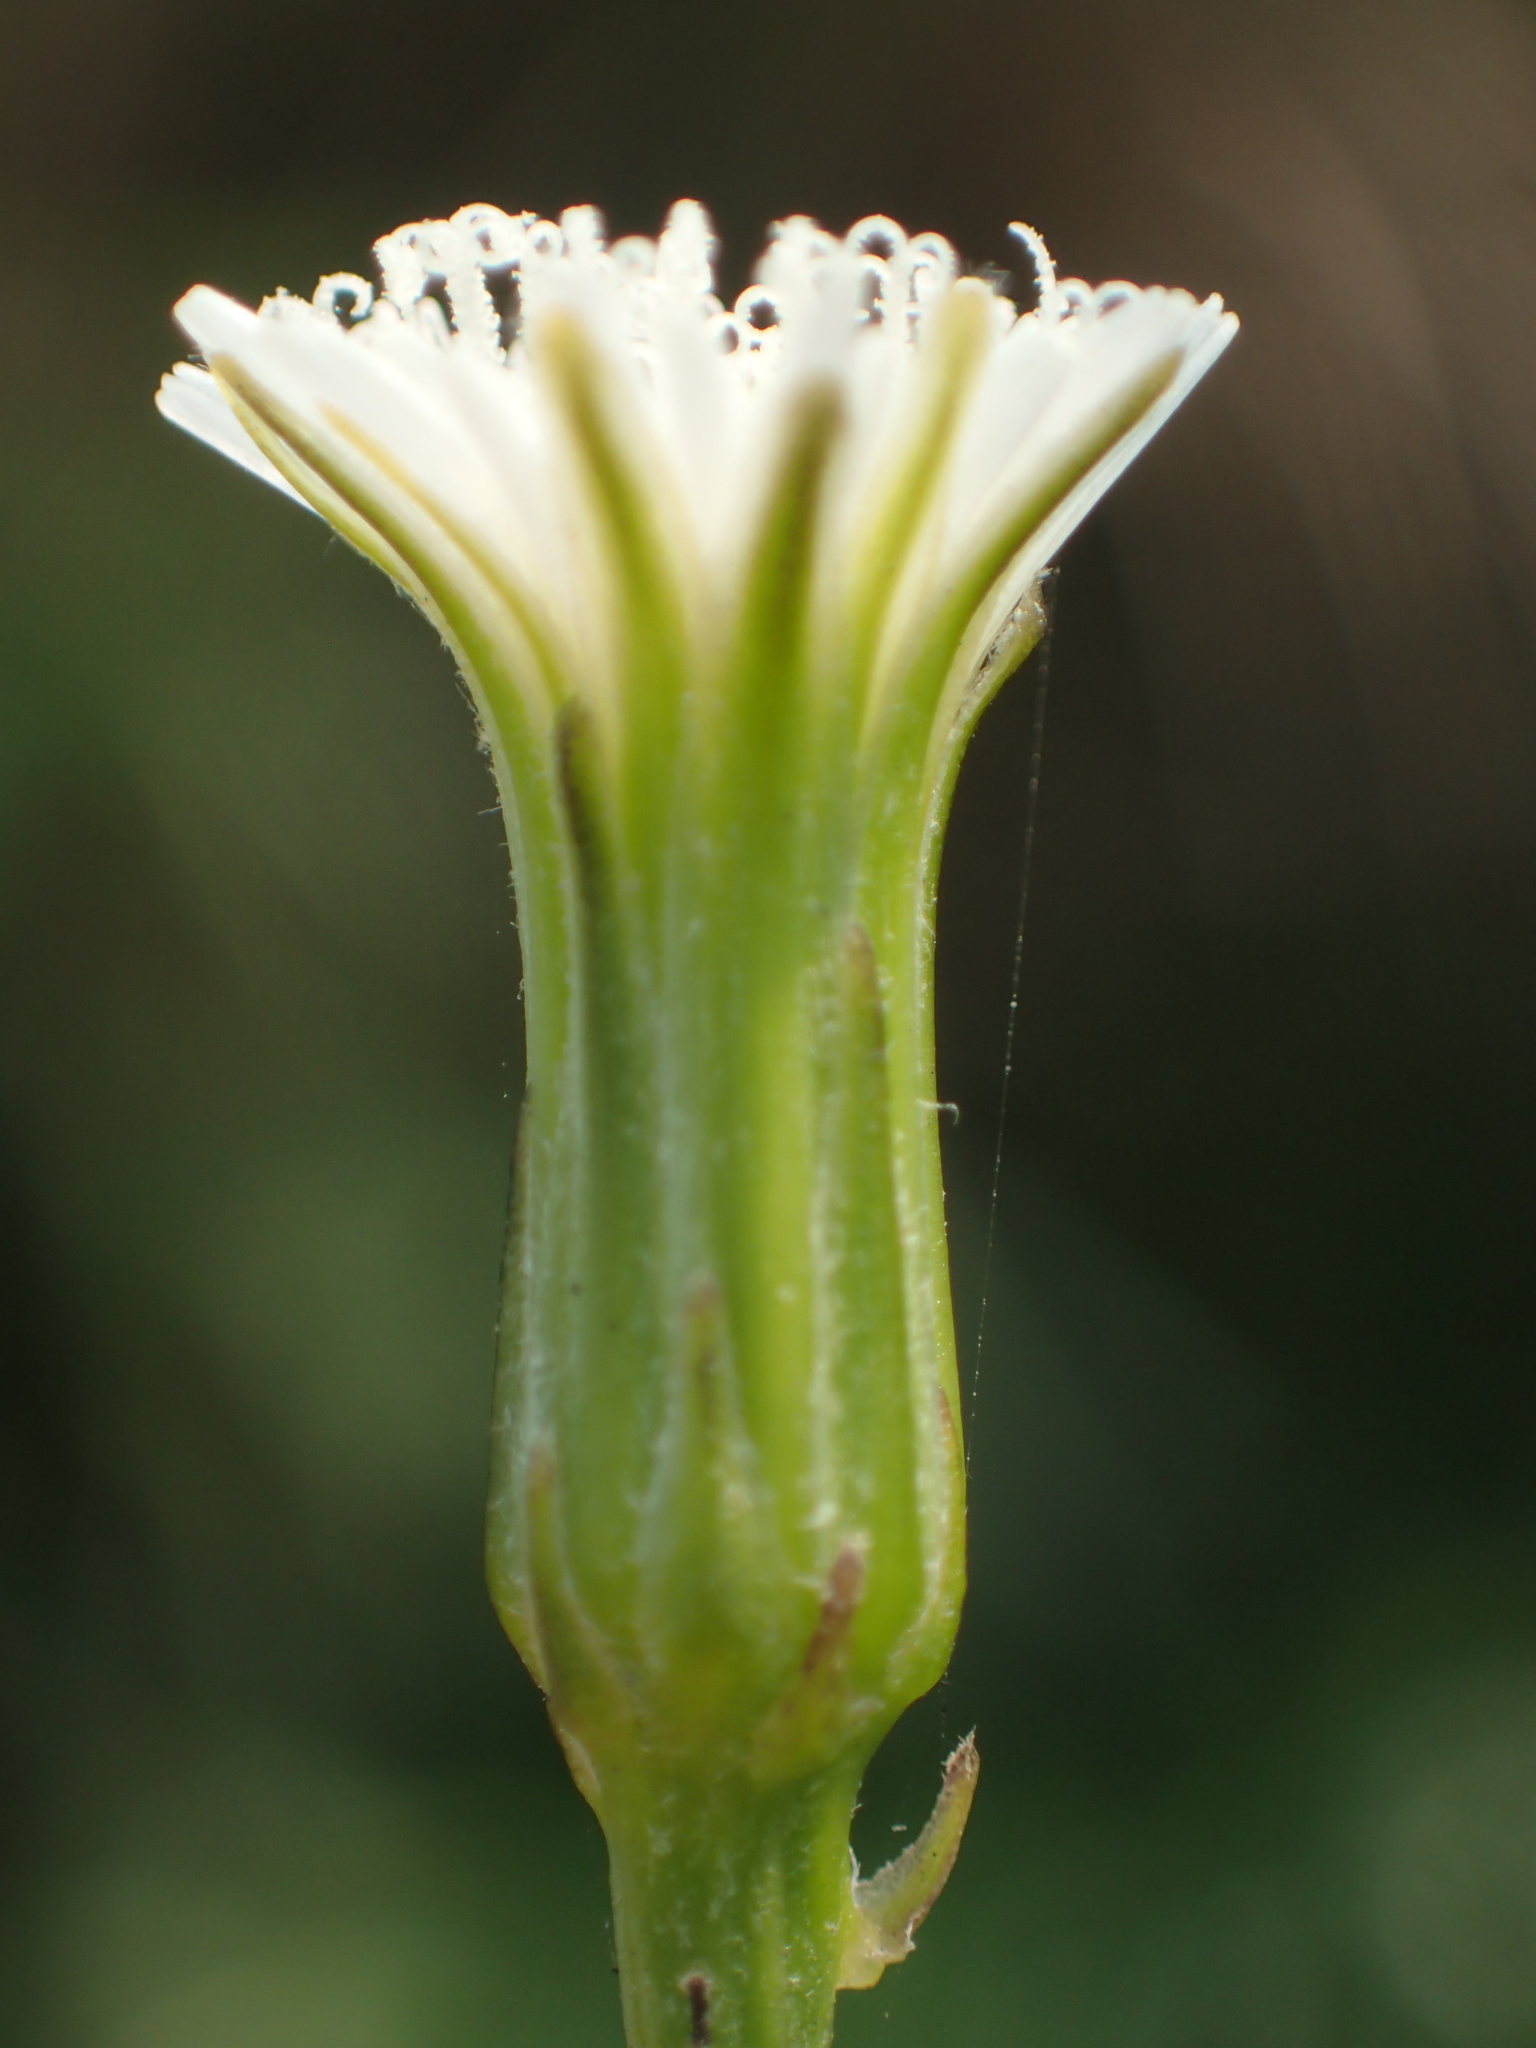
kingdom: Plantae
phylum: Tracheophyta
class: Magnoliopsida
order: Asterales
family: Asteraceae
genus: Hypochaeris
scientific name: Hypochaeris albiflora
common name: White flatweed
